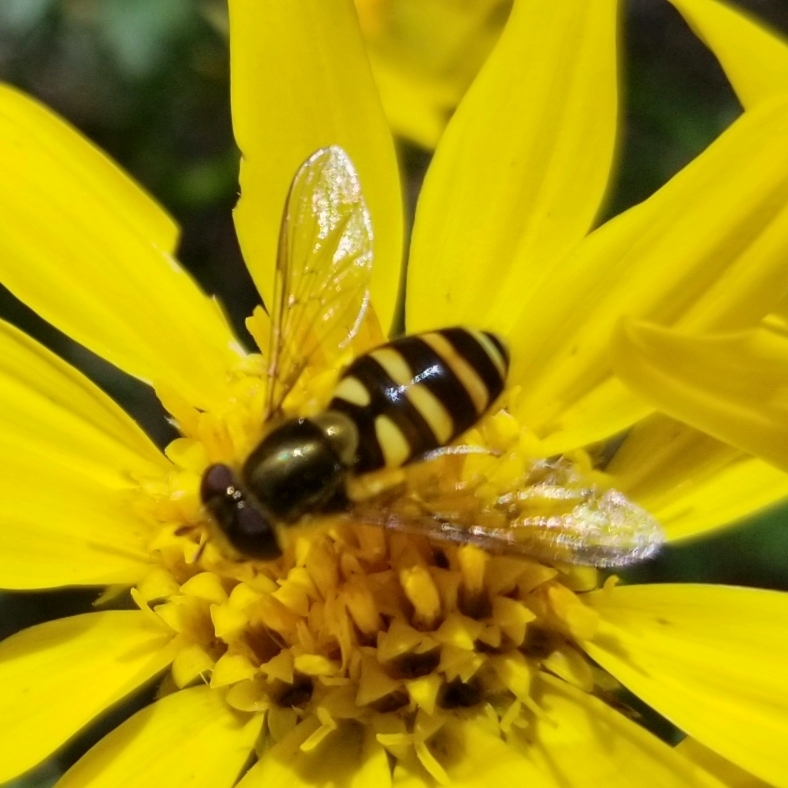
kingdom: Animalia
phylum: Arthropoda
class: Insecta
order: Diptera
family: Syrphidae
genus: Syrphus
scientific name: Syrphus opinator
